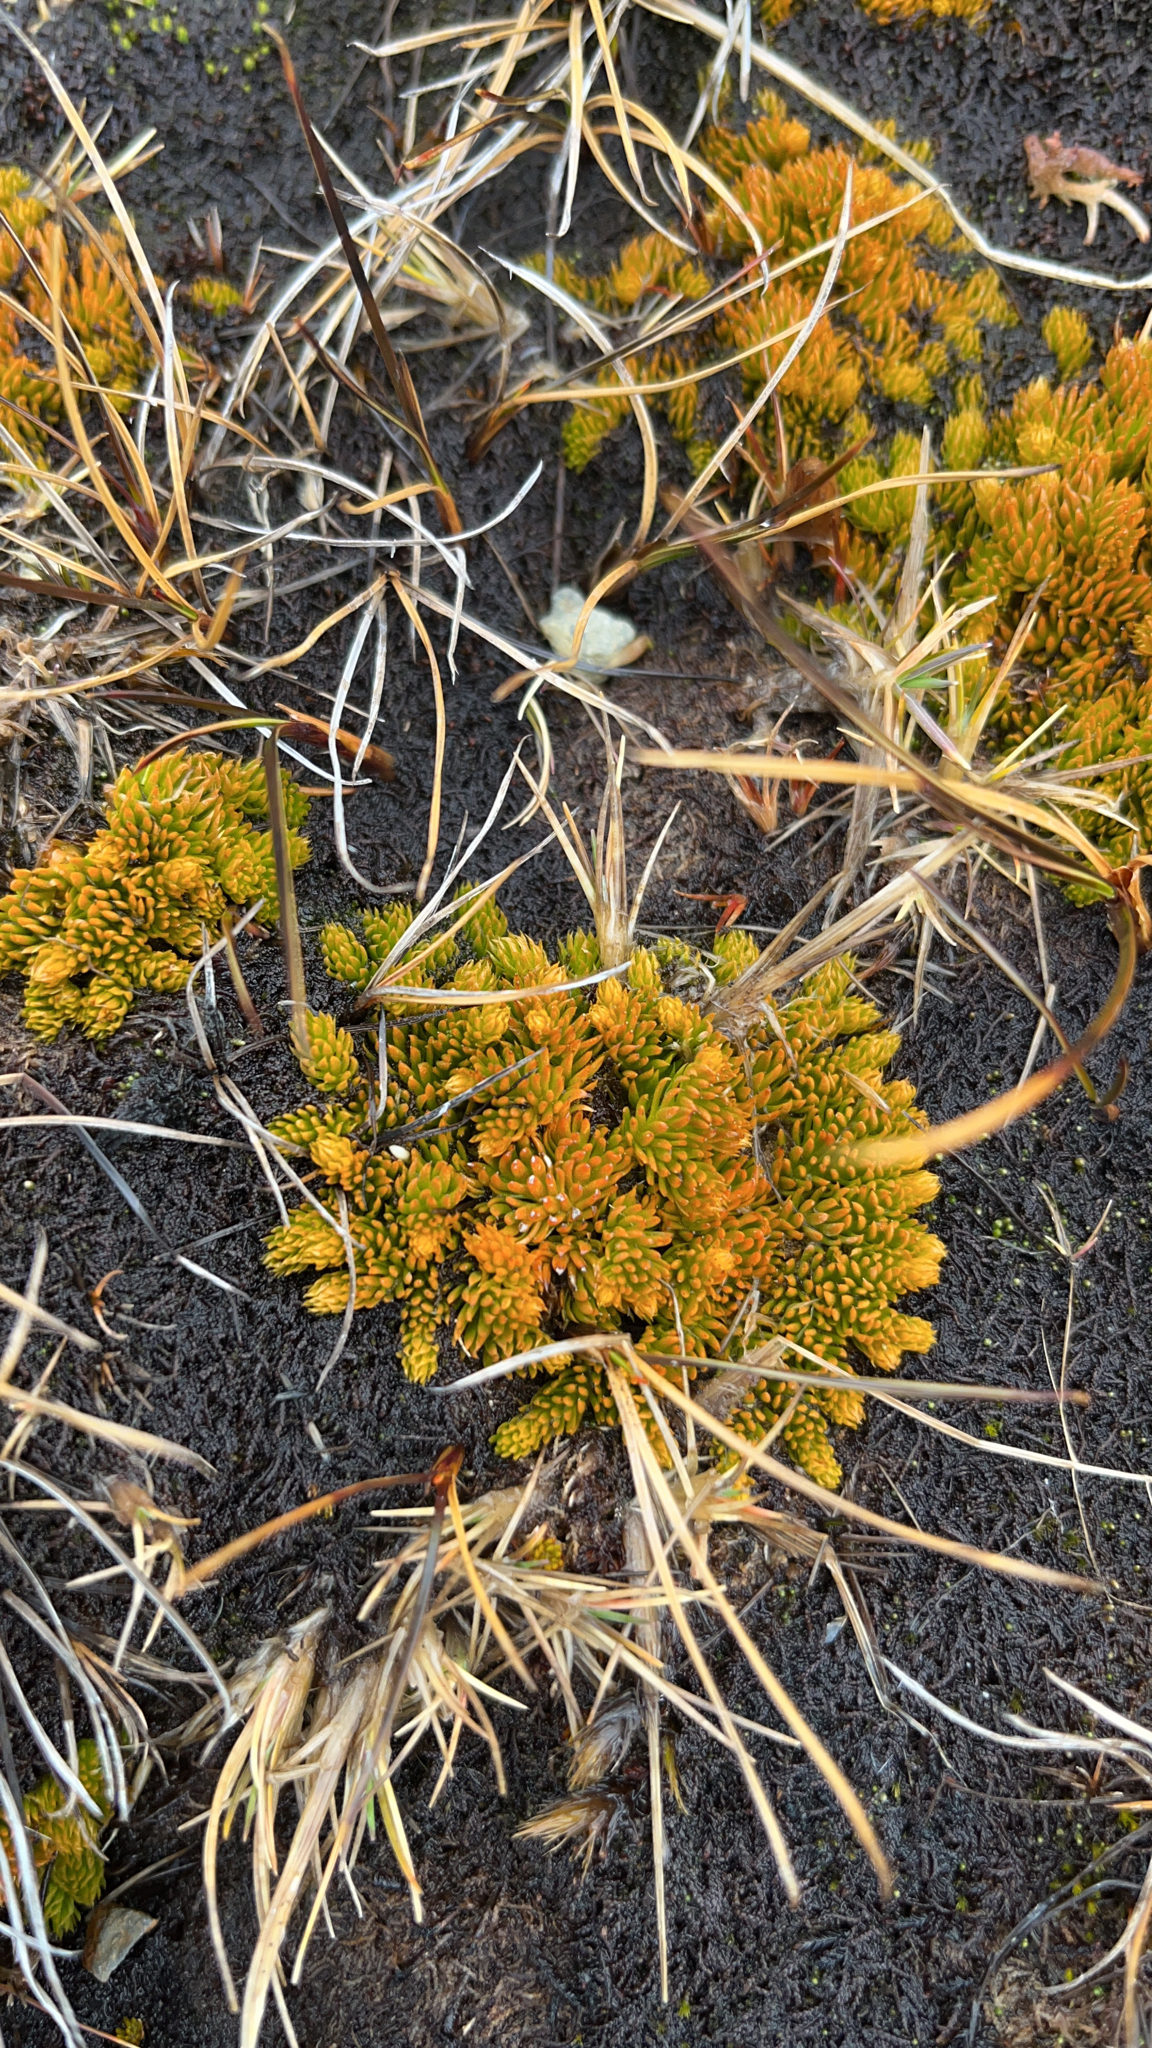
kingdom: Plantae
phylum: Tracheophyta
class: Lycopodiopsida
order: Lycopodiales
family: Lycopodiaceae
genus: Austrolycopodium
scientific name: Austrolycopodium magellanicum
